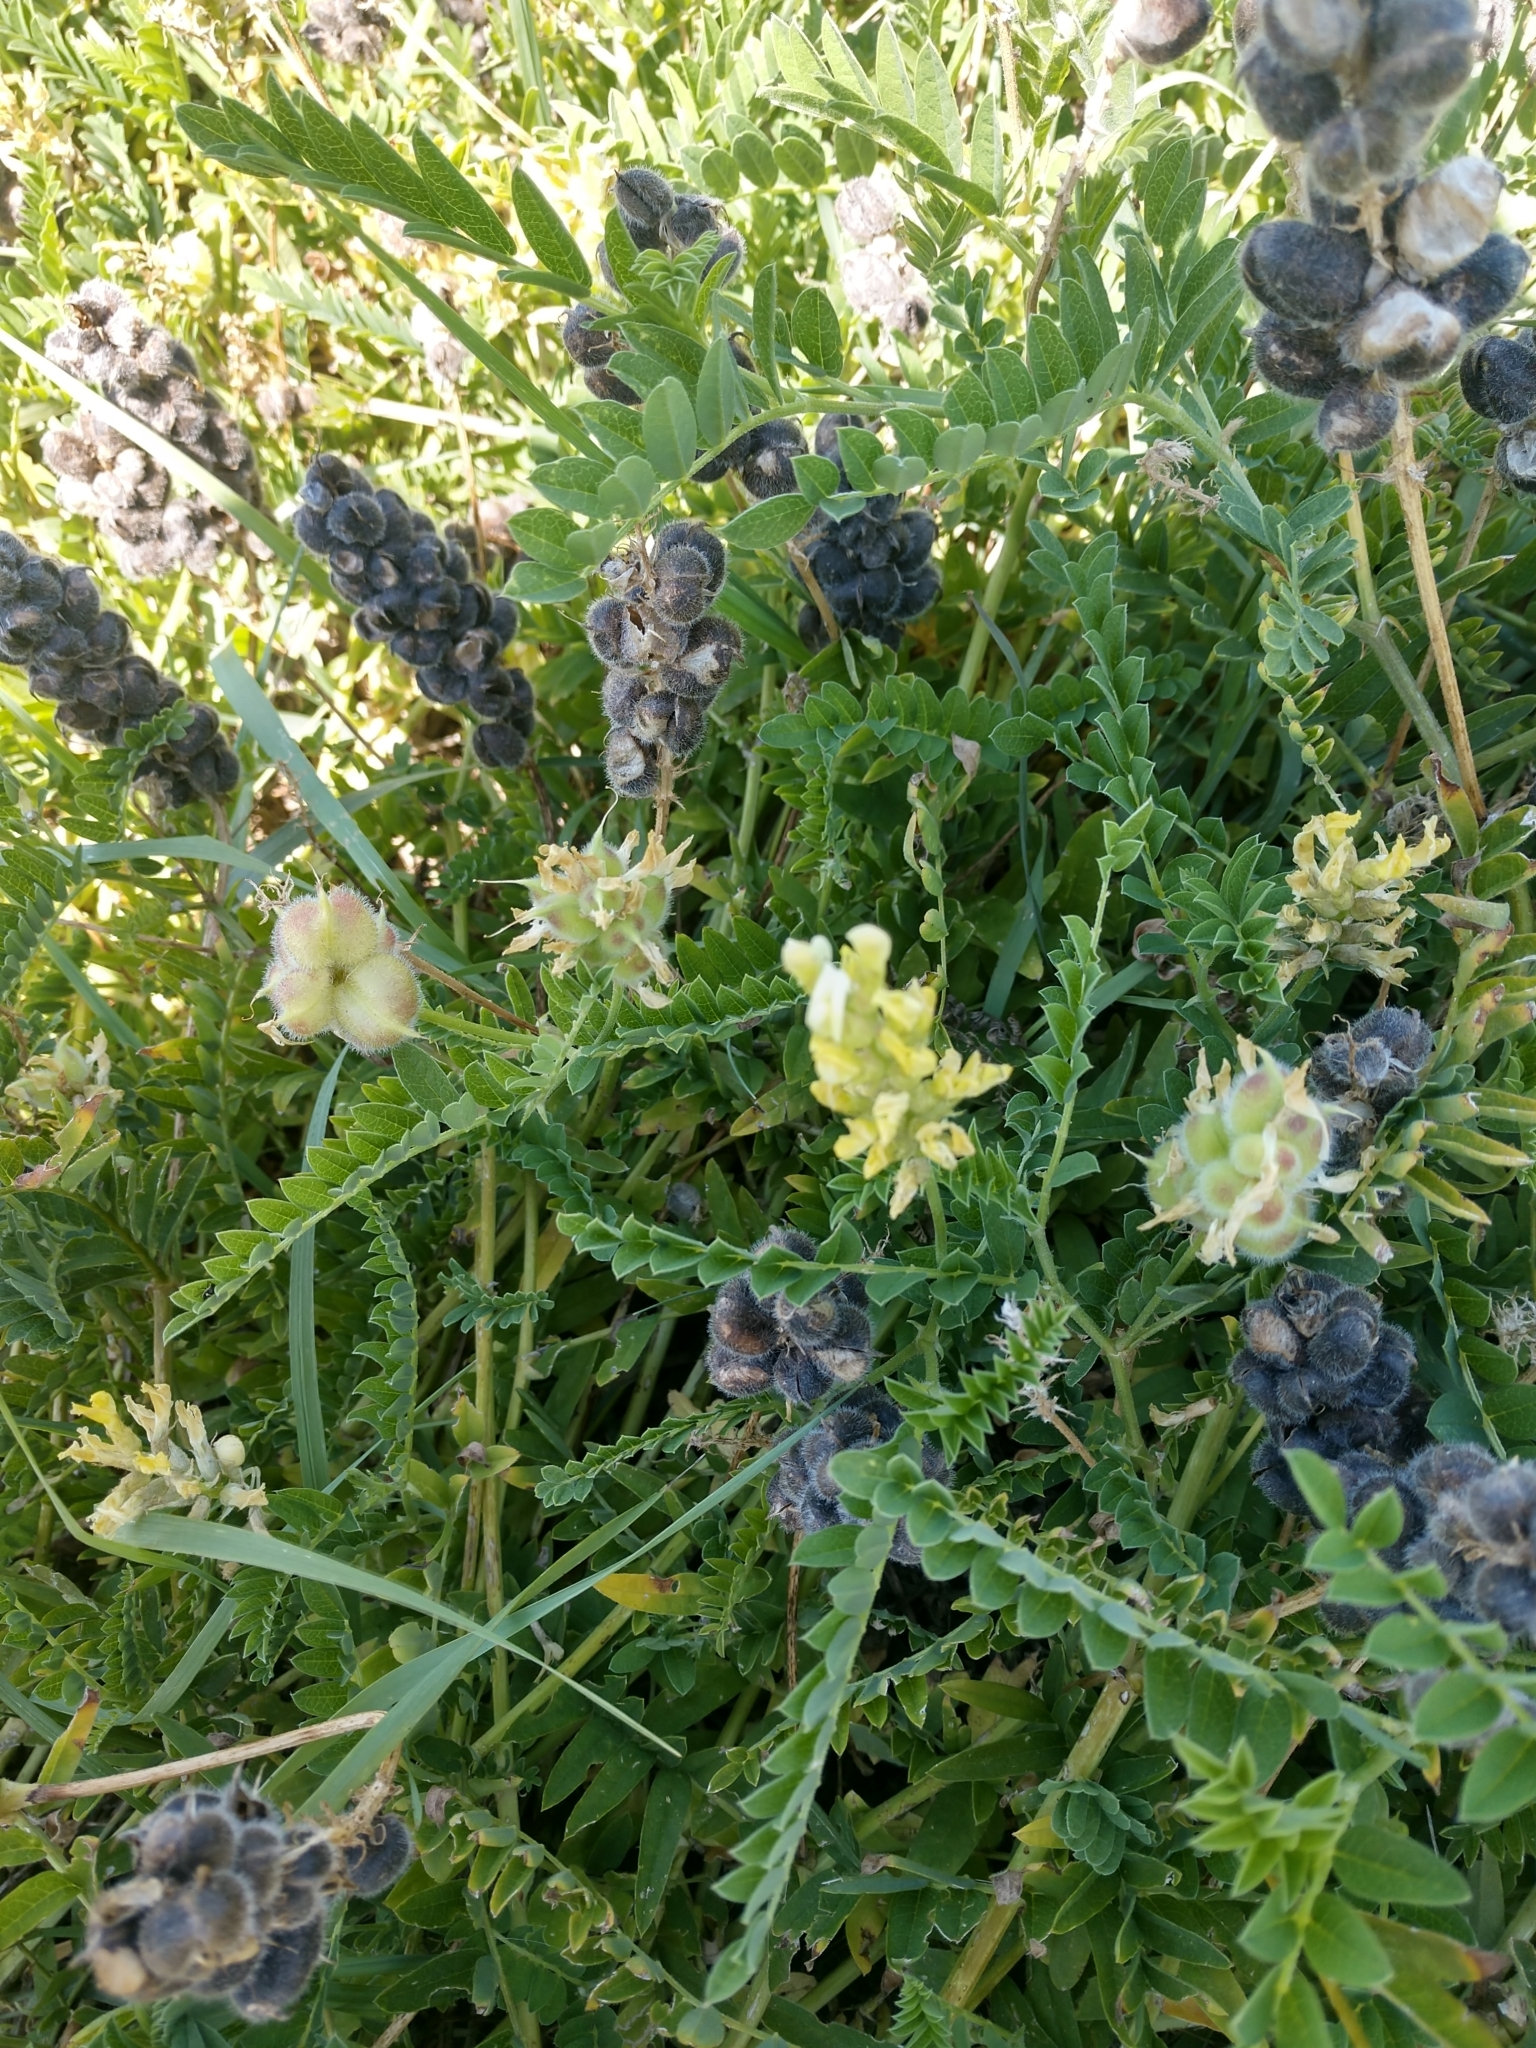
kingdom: Plantae
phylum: Tracheophyta
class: Magnoliopsida
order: Fabales
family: Fabaceae
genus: Astragalus
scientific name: Astragalus cicer
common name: Chick-pea milk-vetch
